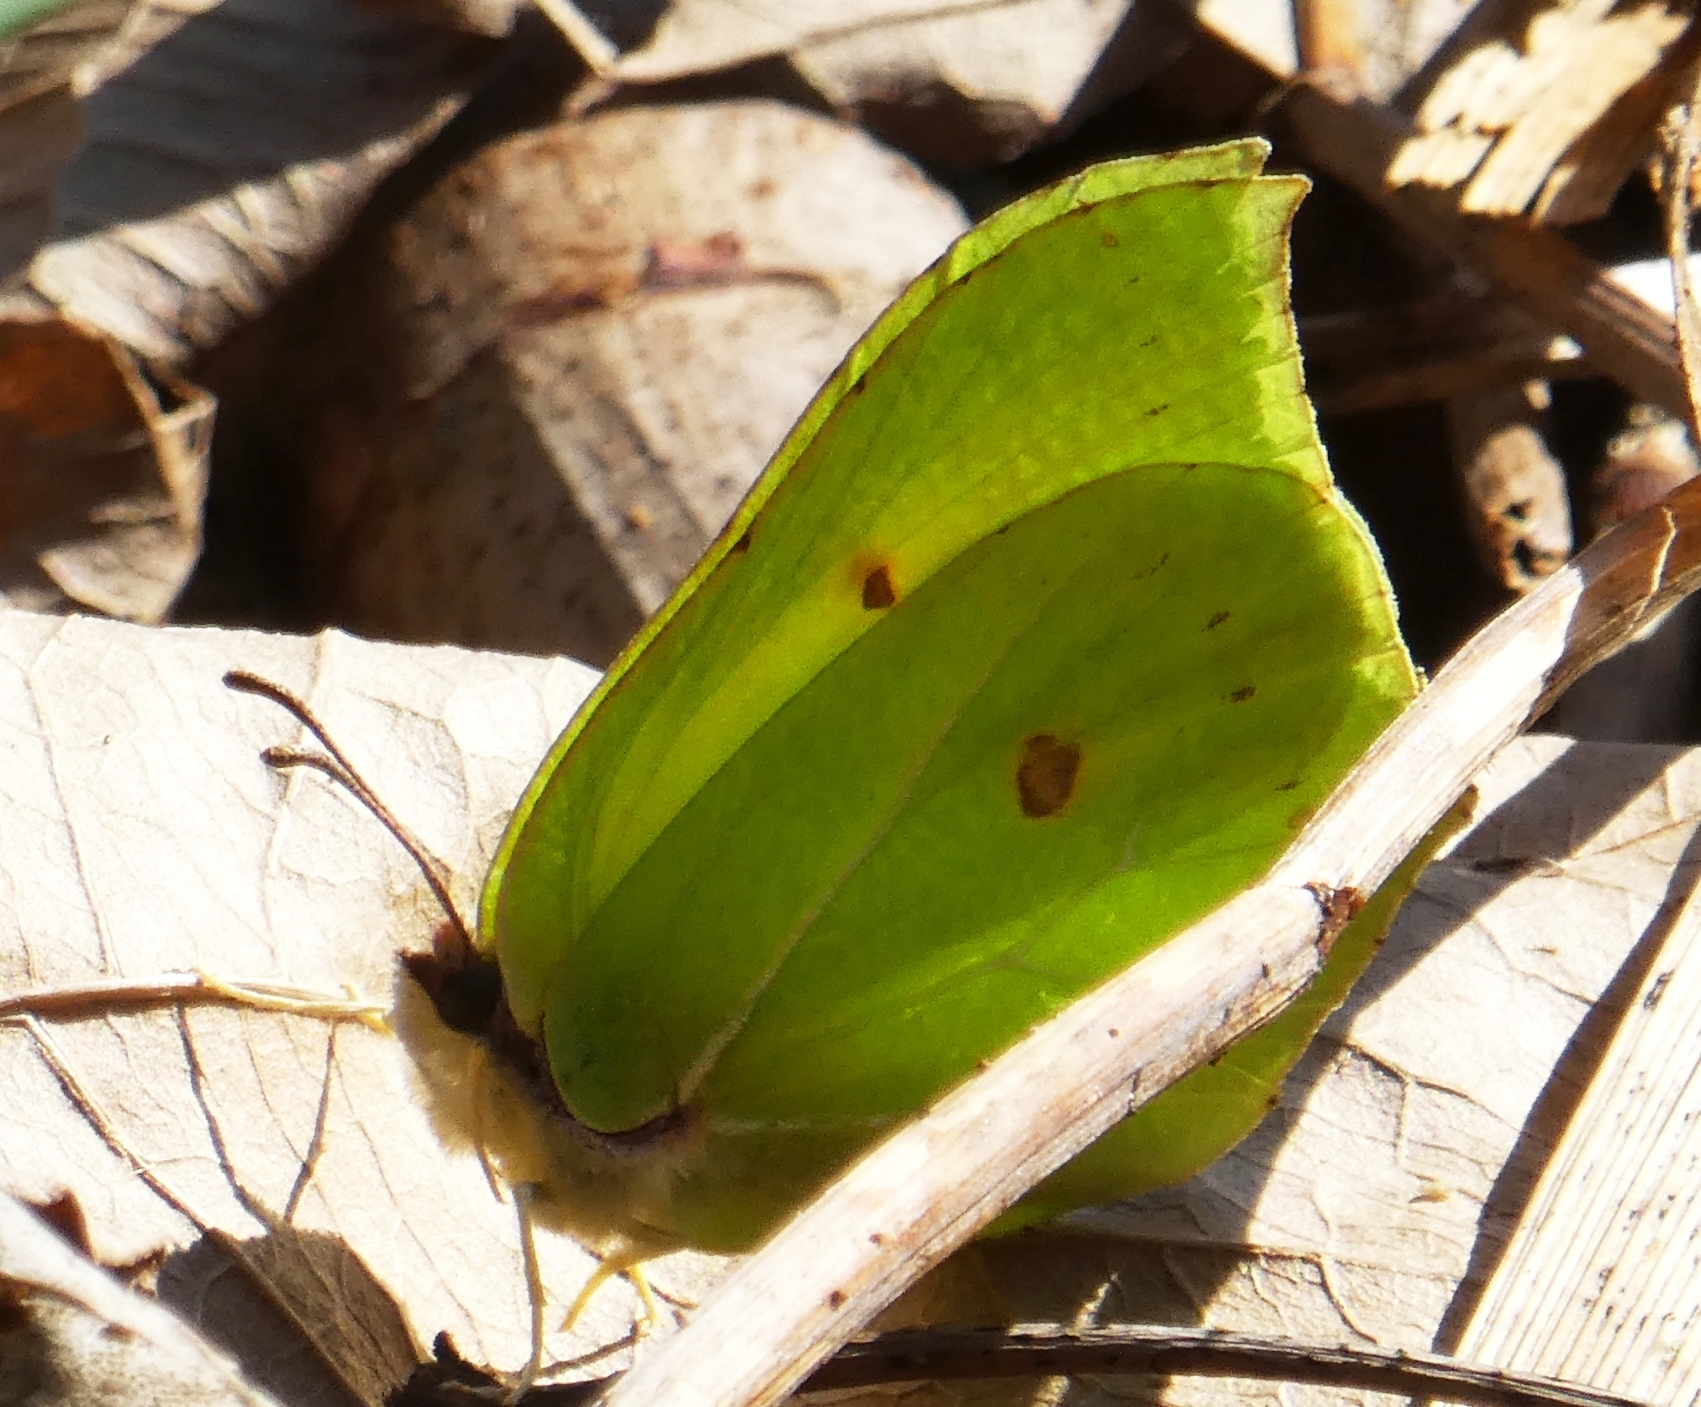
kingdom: Animalia
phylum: Arthropoda
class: Insecta
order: Lepidoptera
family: Pieridae
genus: Gonepteryx
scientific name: Gonepteryx rhamni
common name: Brimstone
